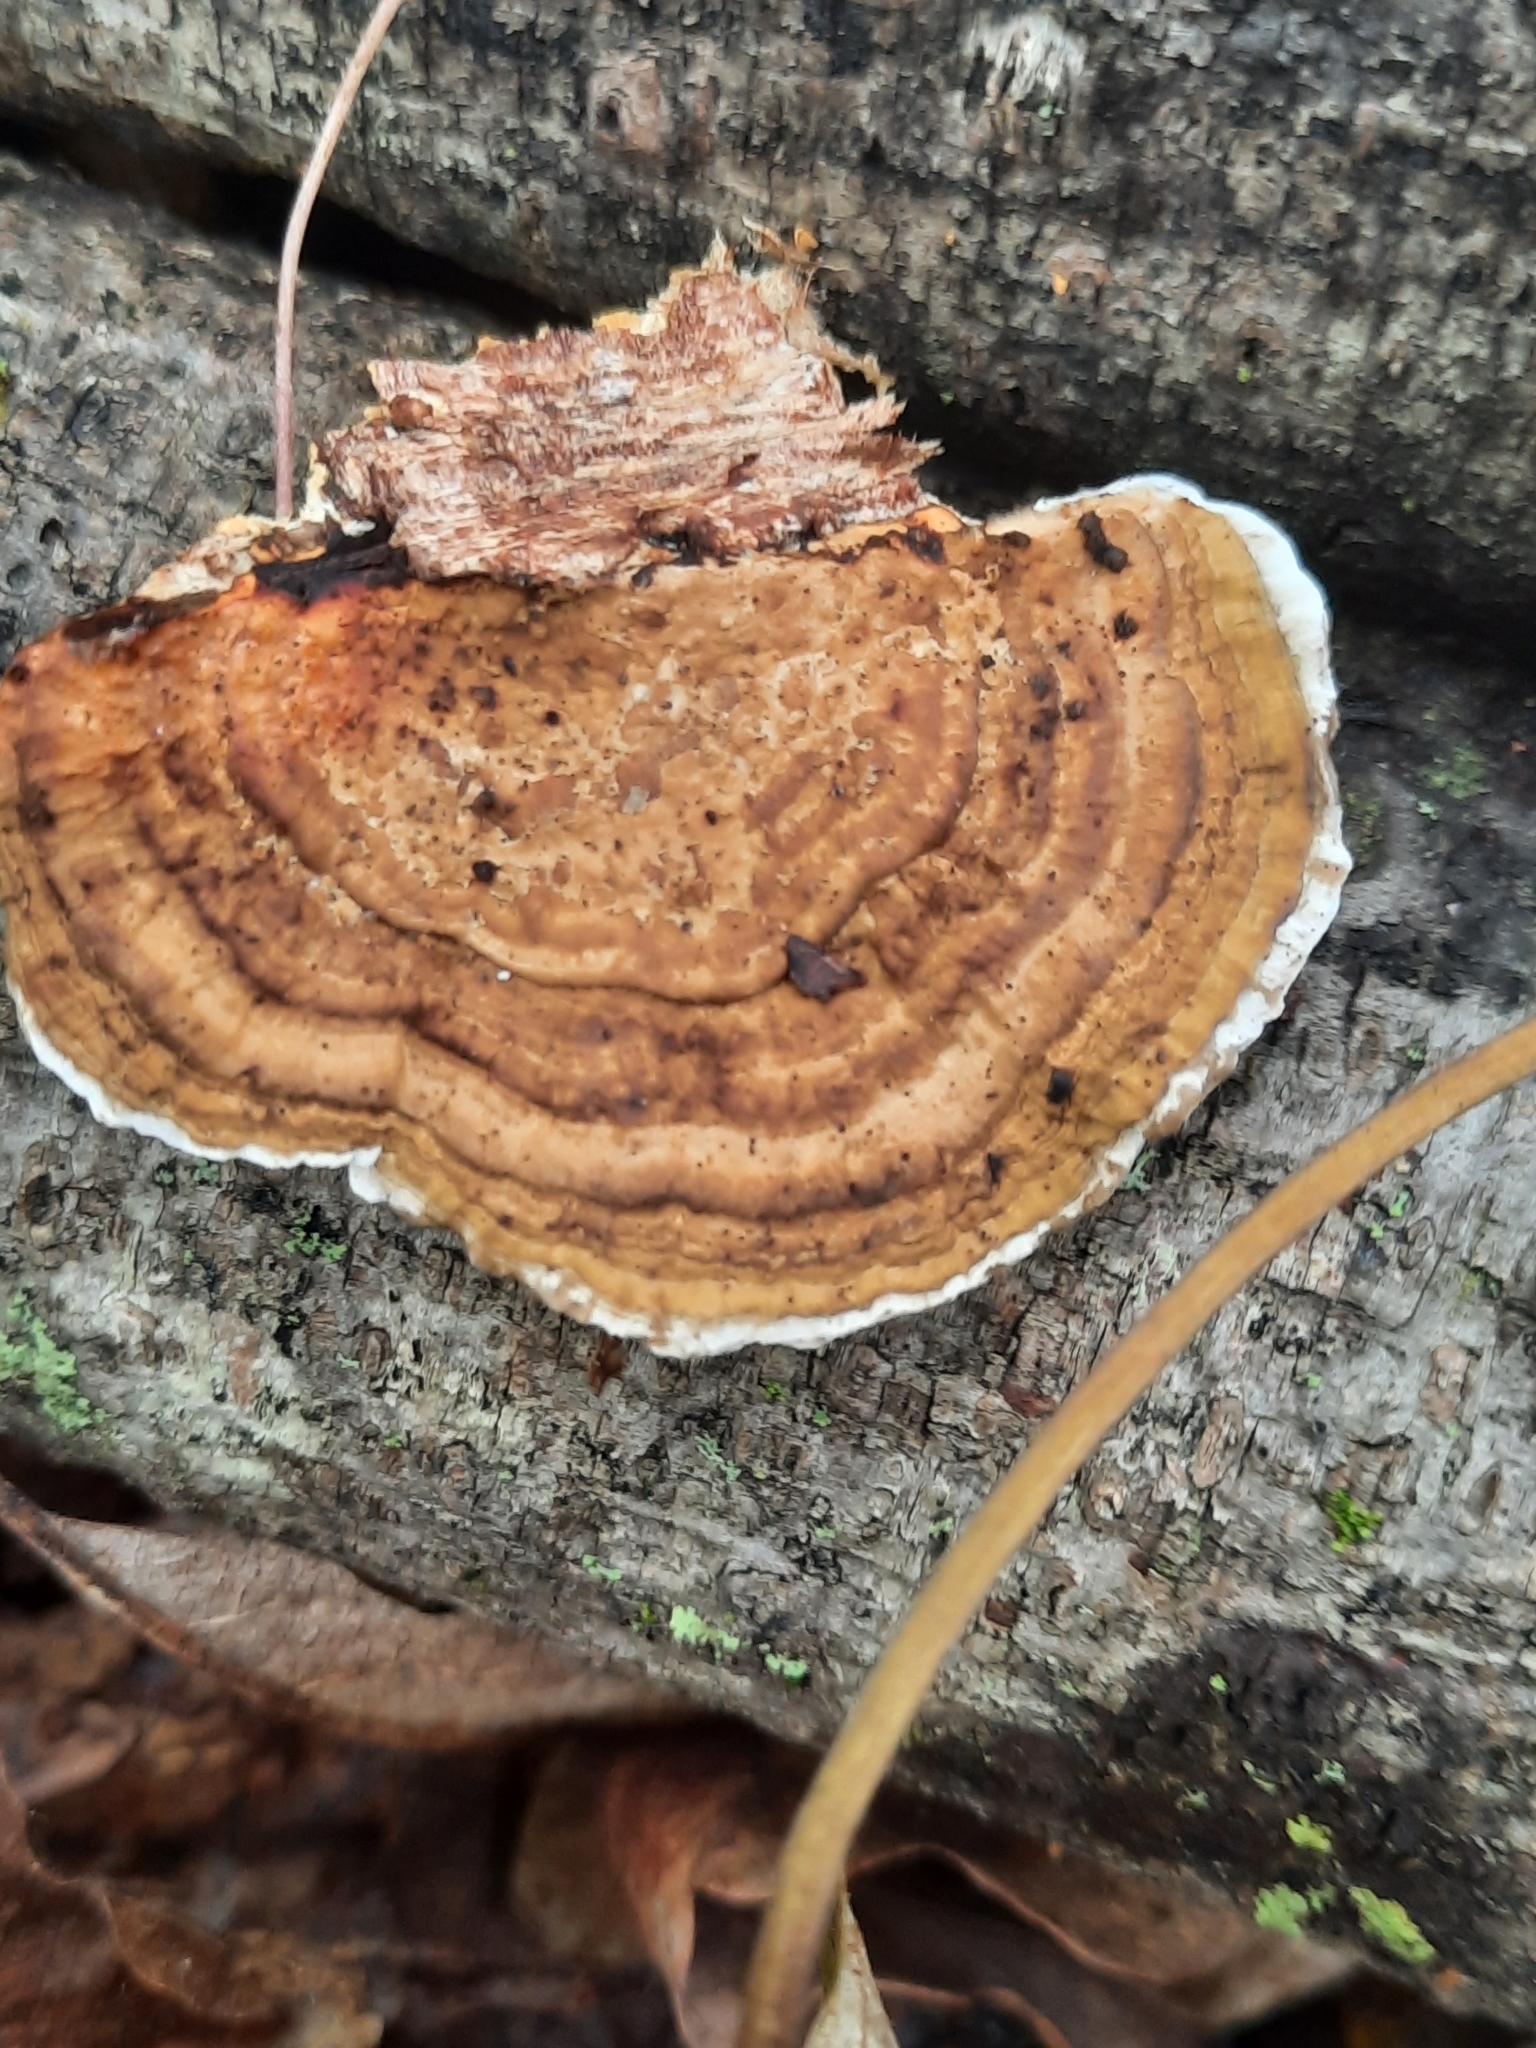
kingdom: Fungi
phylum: Basidiomycota
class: Agaricomycetes
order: Polyporales
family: Polyporaceae
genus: Daedaleopsis
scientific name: Daedaleopsis confragosa
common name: Blushing bracket
